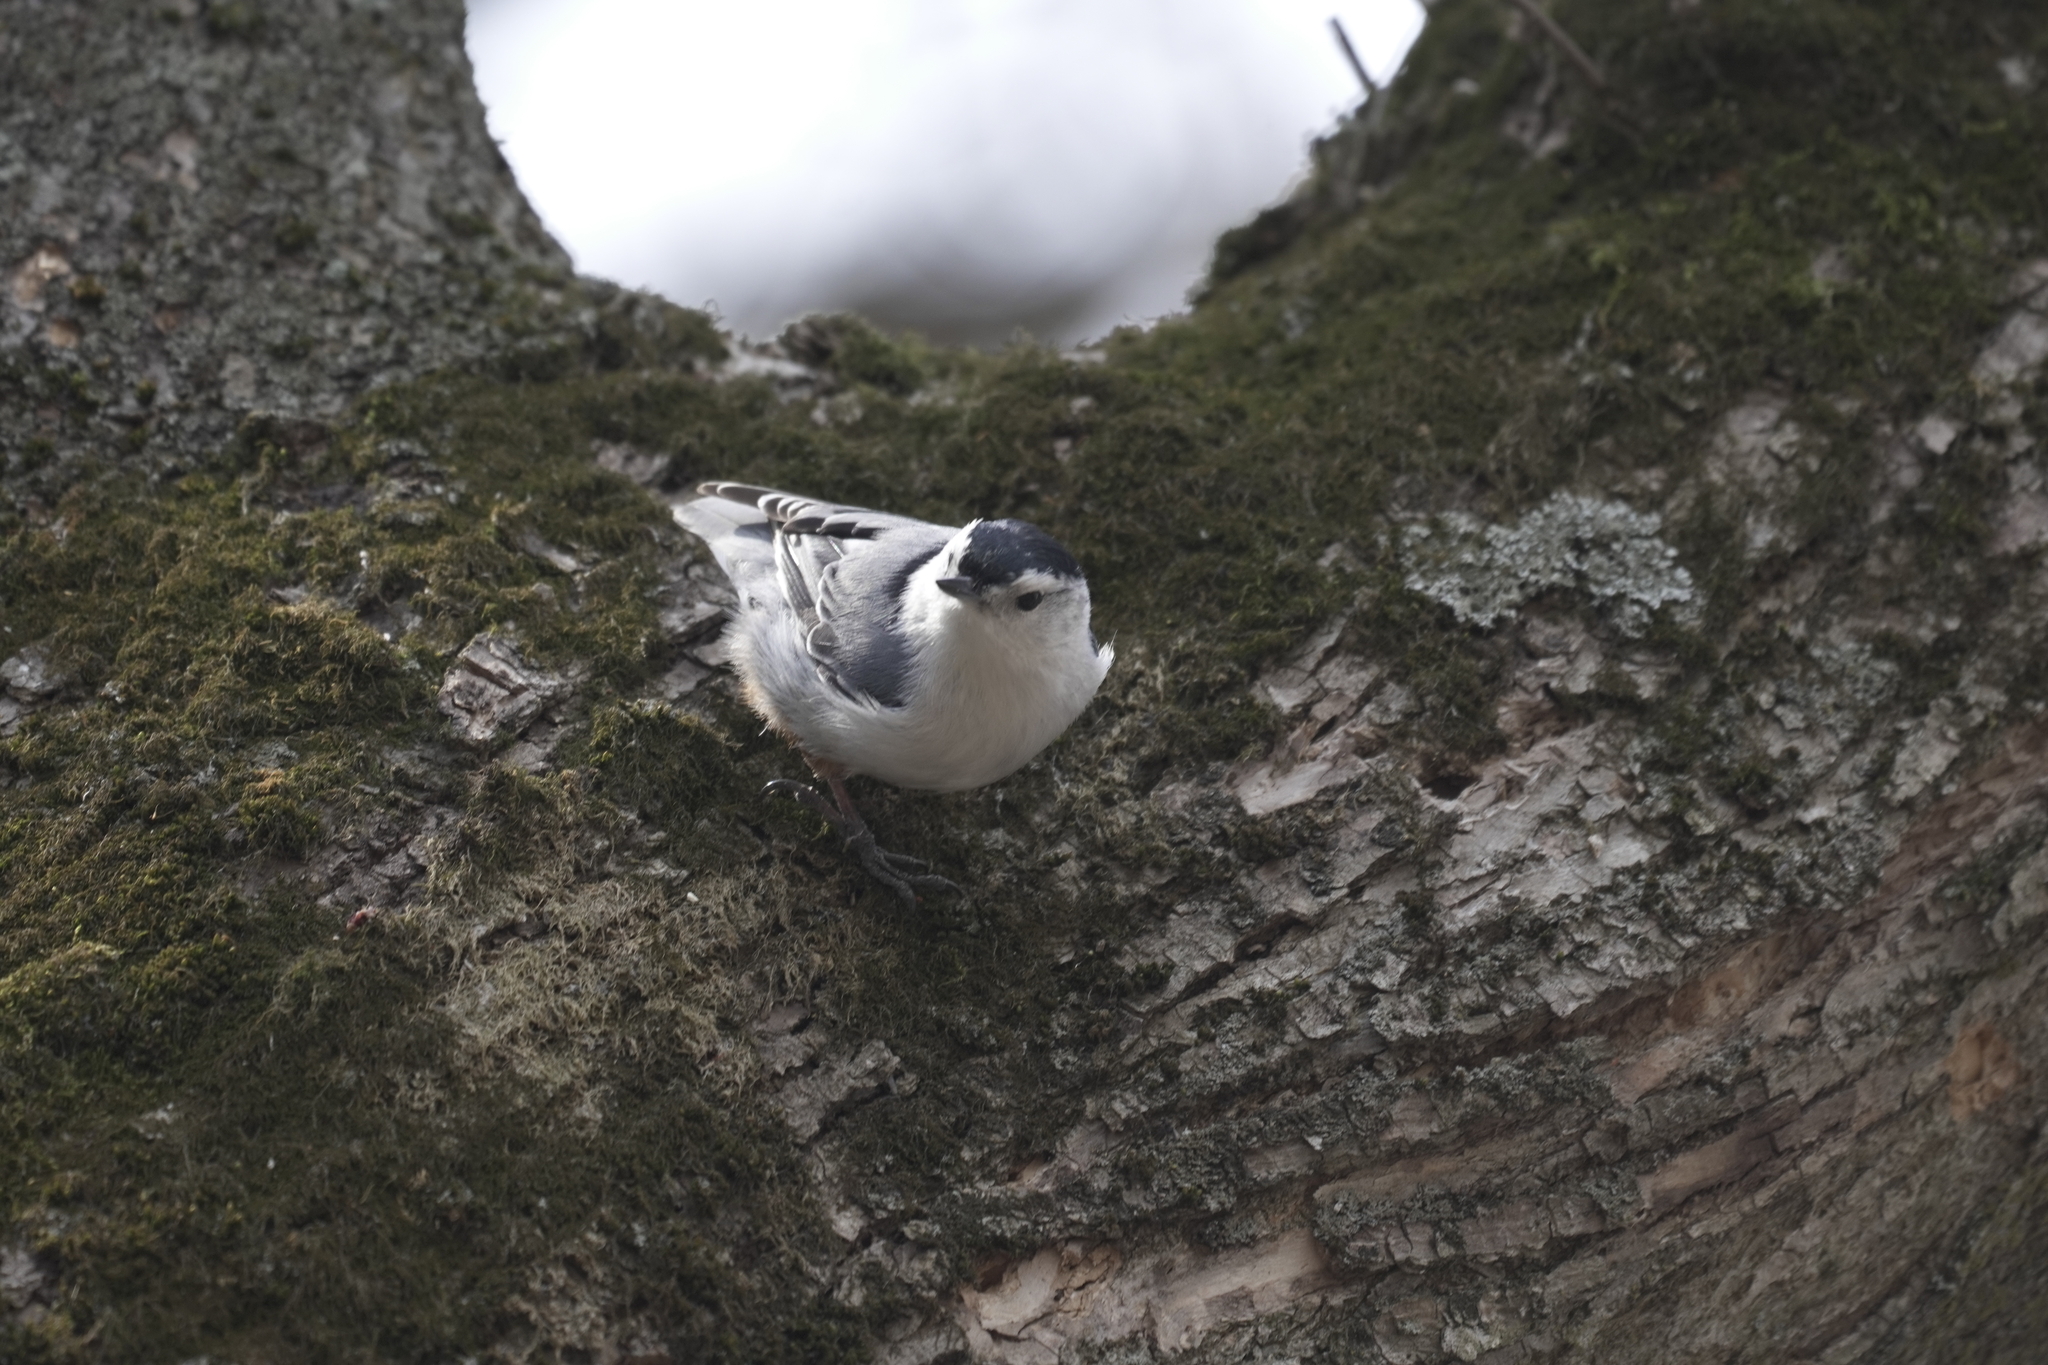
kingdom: Animalia
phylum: Chordata
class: Aves
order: Passeriformes
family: Sittidae
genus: Sitta
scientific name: Sitta carolinensis
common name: White-breasted nuthatch
